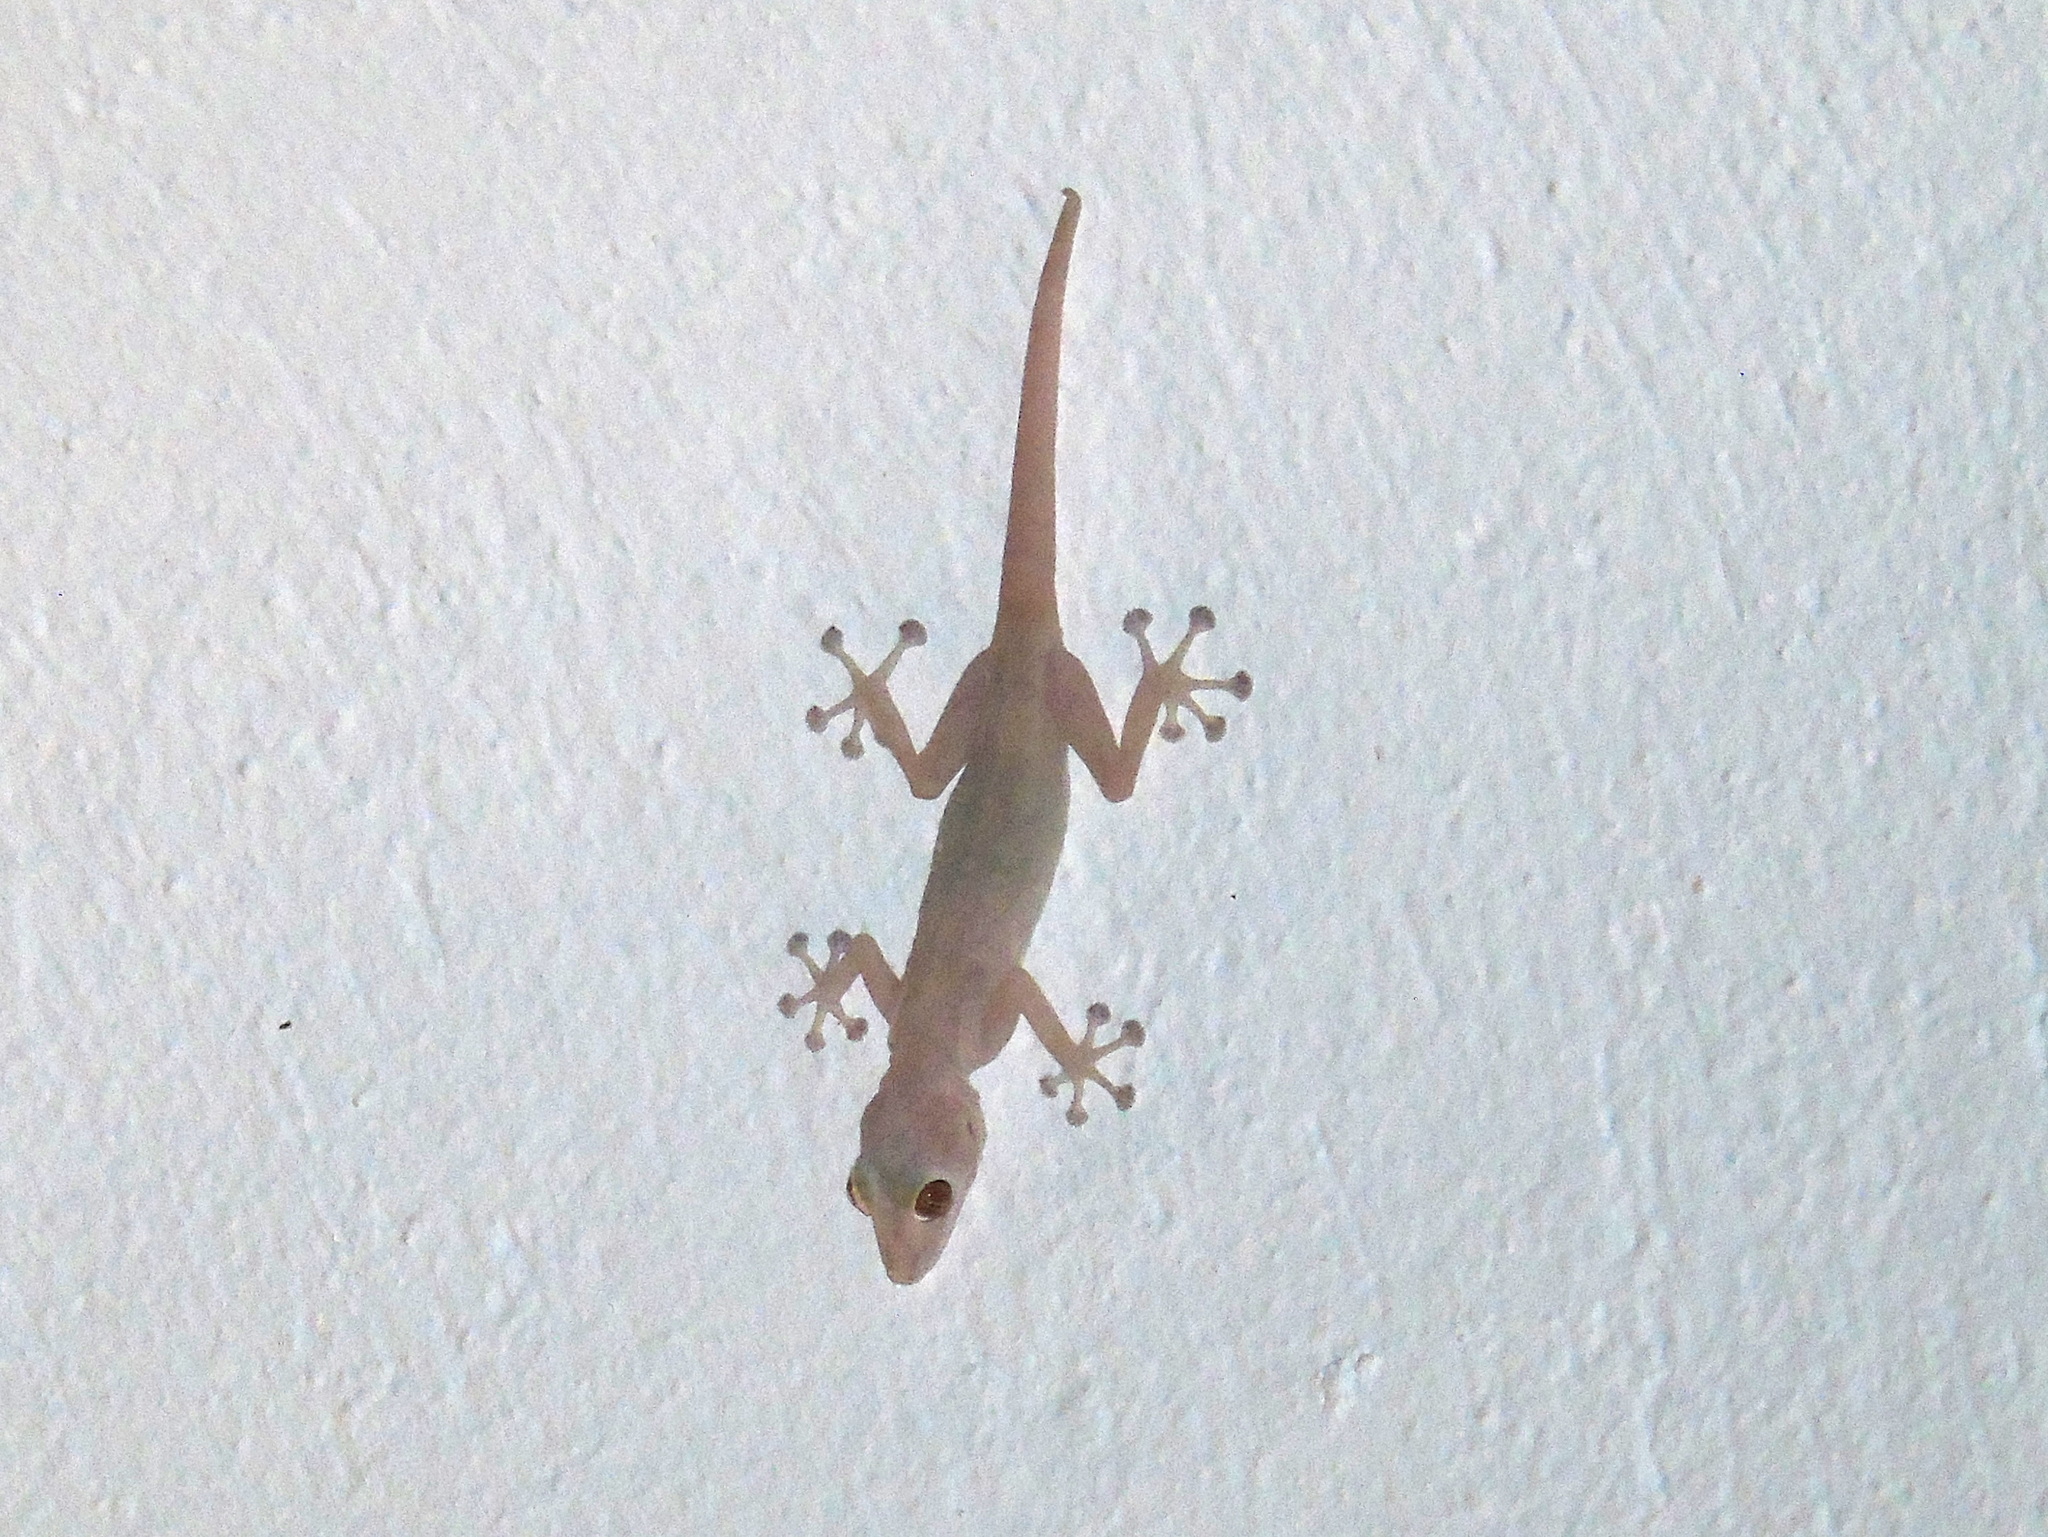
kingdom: Animalia
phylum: Chordata
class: Squamata
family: Phyllodactylidae
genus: Ptyodactylus
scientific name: Ptyodactylus hasselquistii
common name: Hasselquist’s fan-footed gecko
